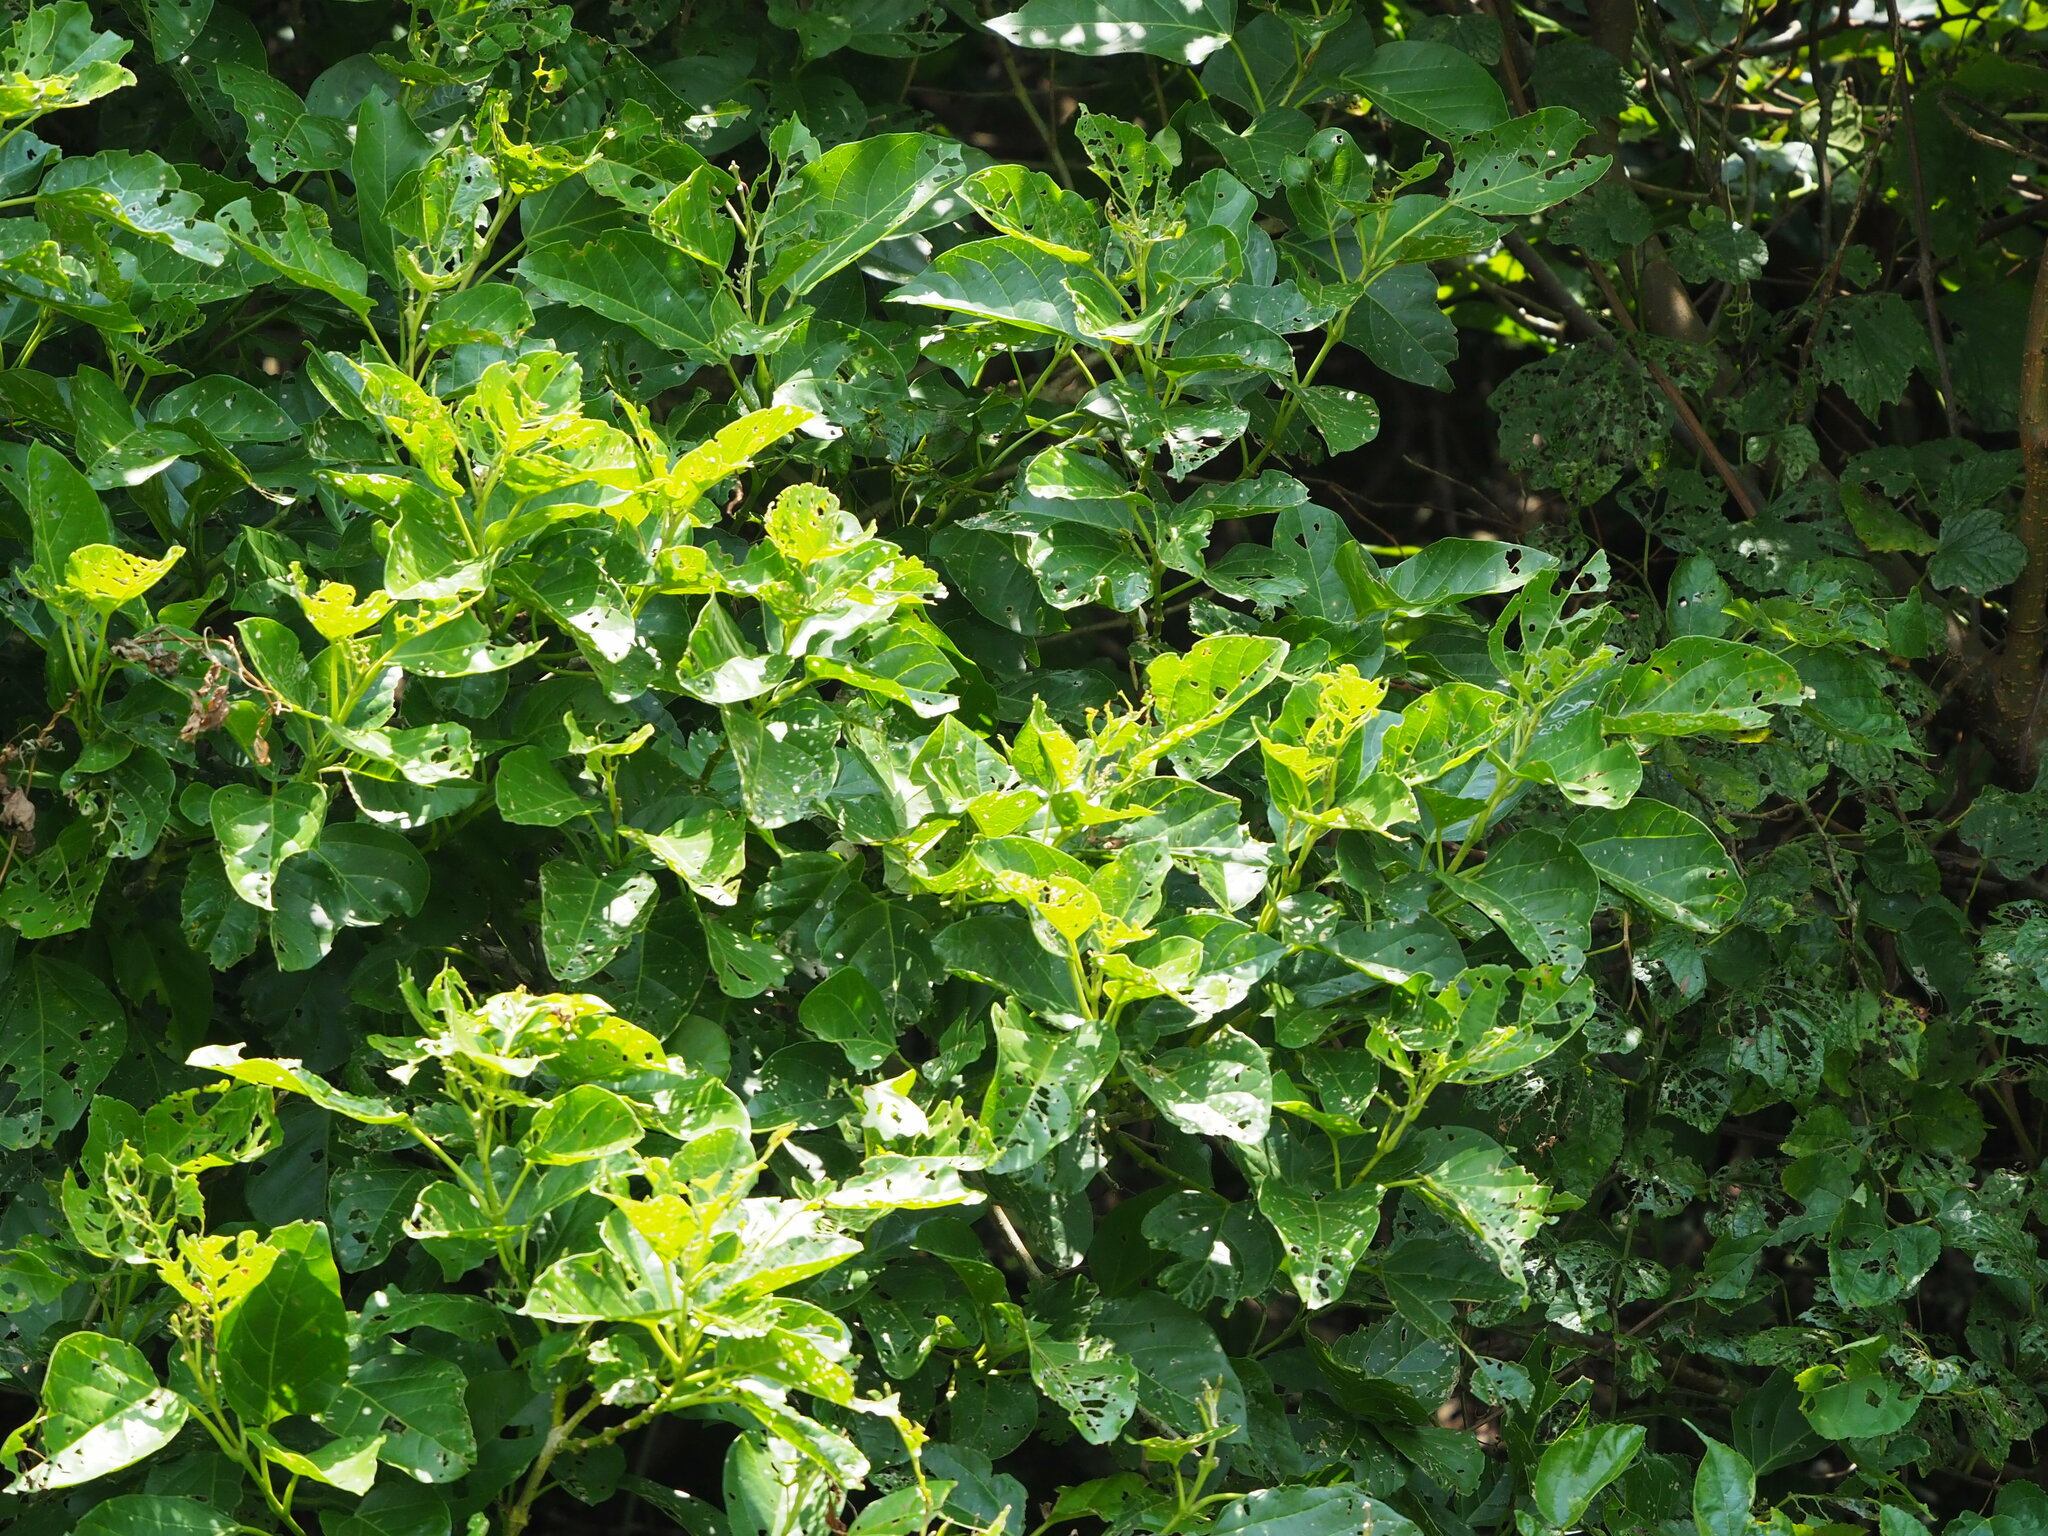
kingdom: Plantae
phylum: Tracheophyta
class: Magnoliopsida
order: Lamiales
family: Lamiaceae
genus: Premna
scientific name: Premna serratifolia
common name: Bastard guelder
